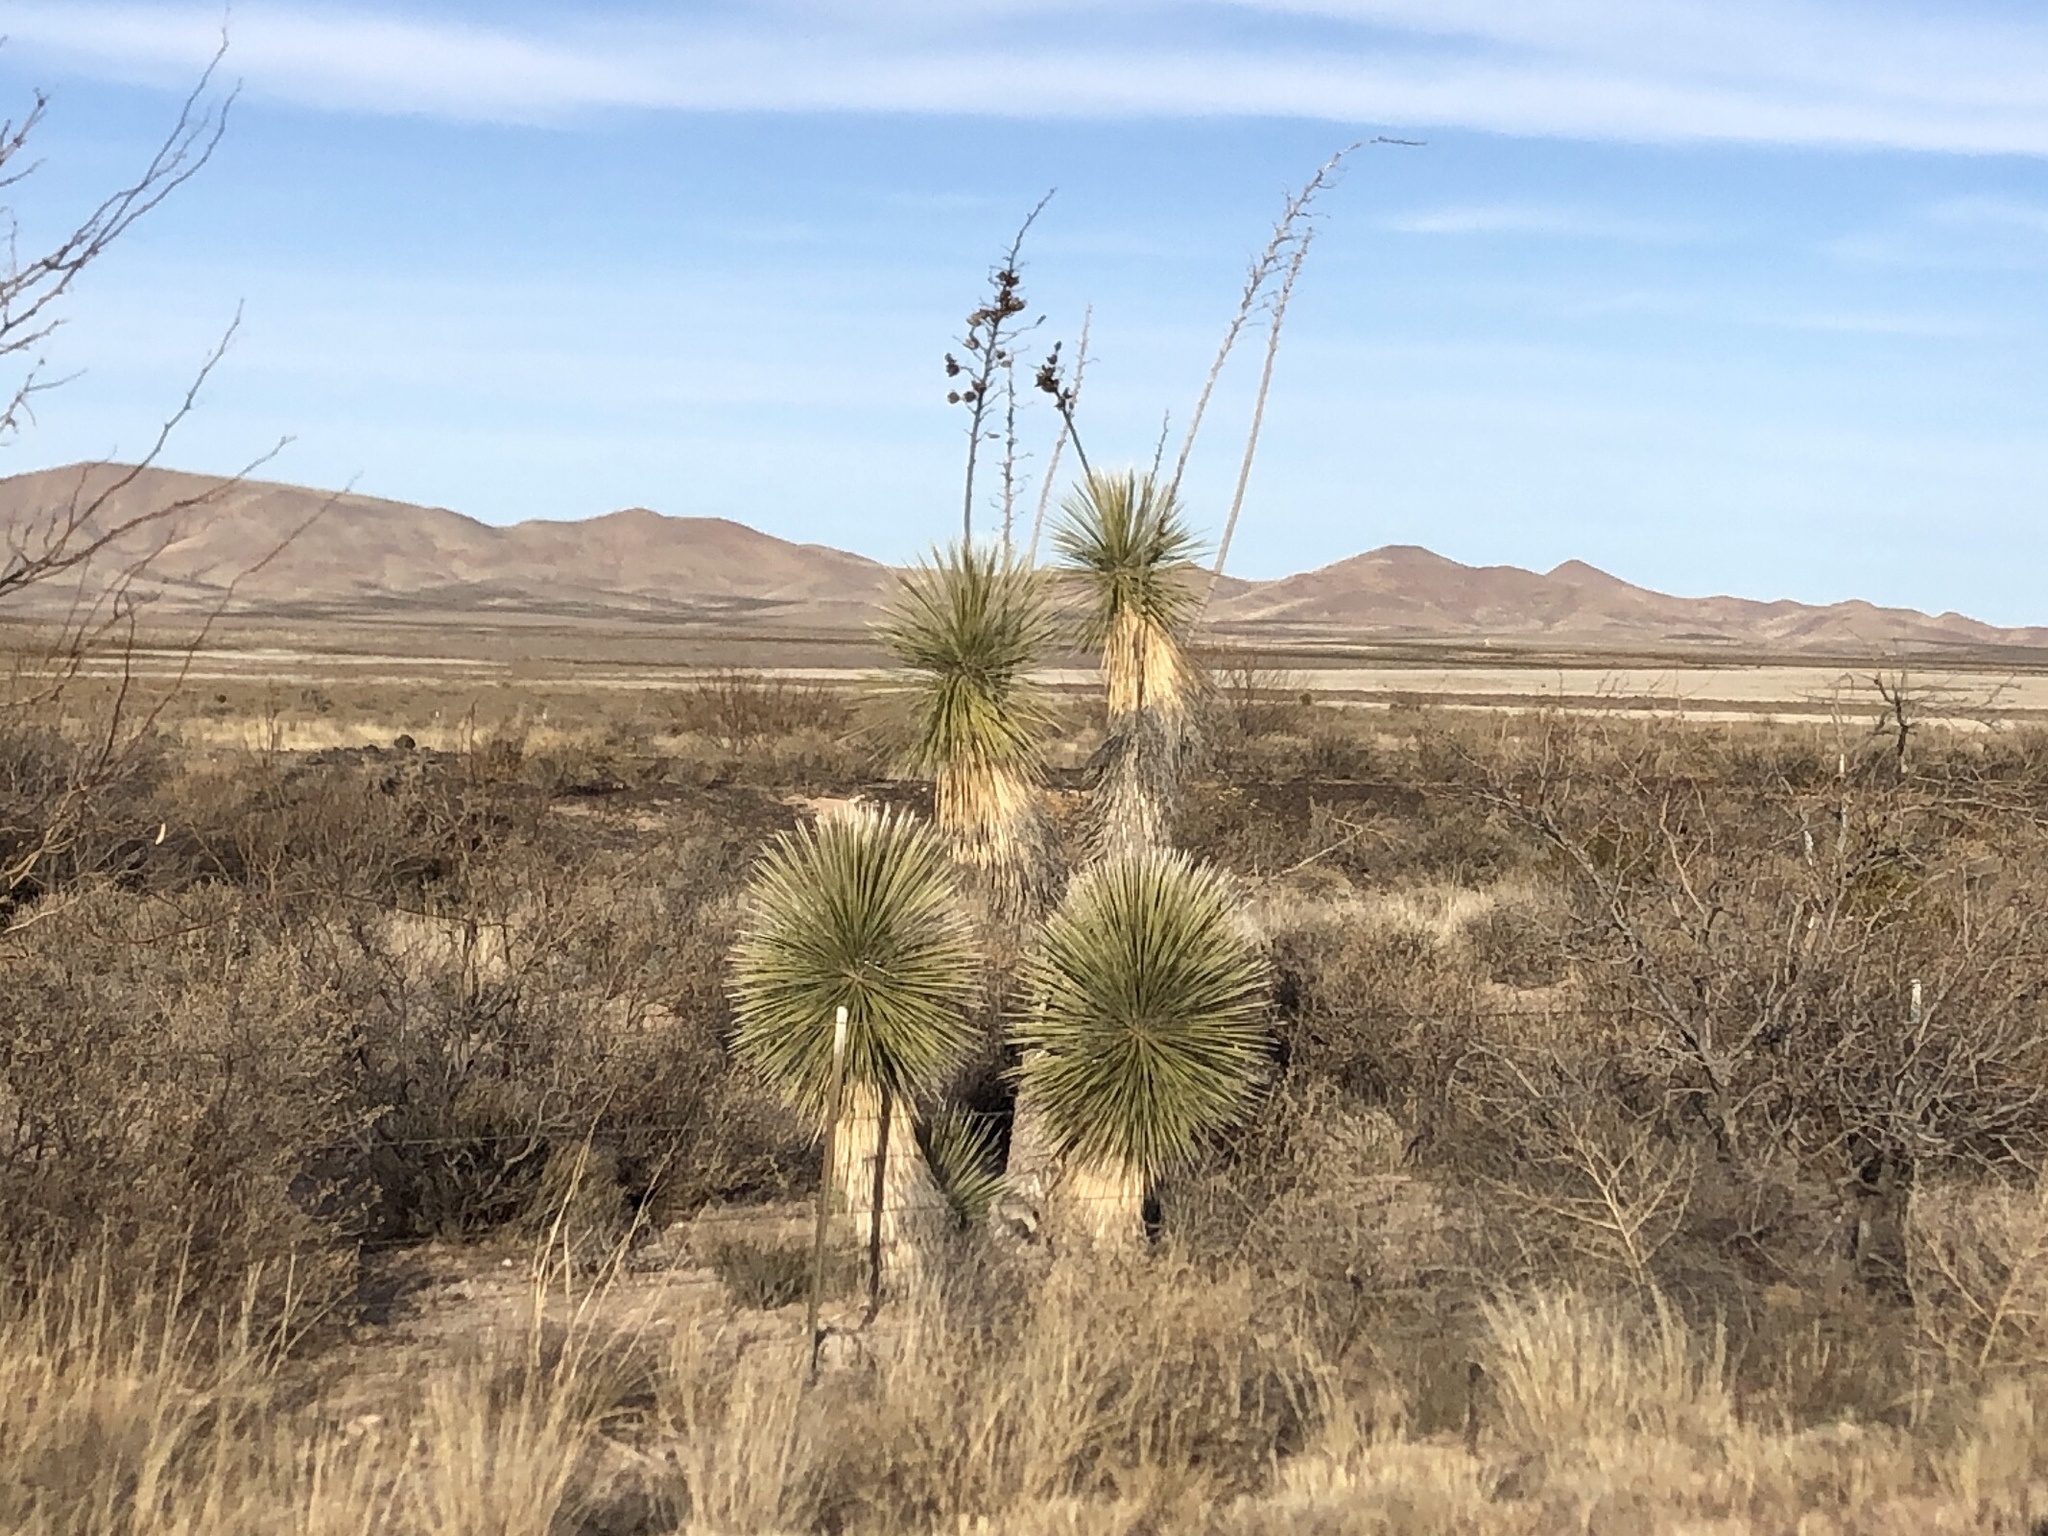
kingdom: Plantae
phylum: Tracheophyta
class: Liliopsida
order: Asparagales
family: Asparagaceae
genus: Yucca
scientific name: Yucca elata
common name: Palmella
